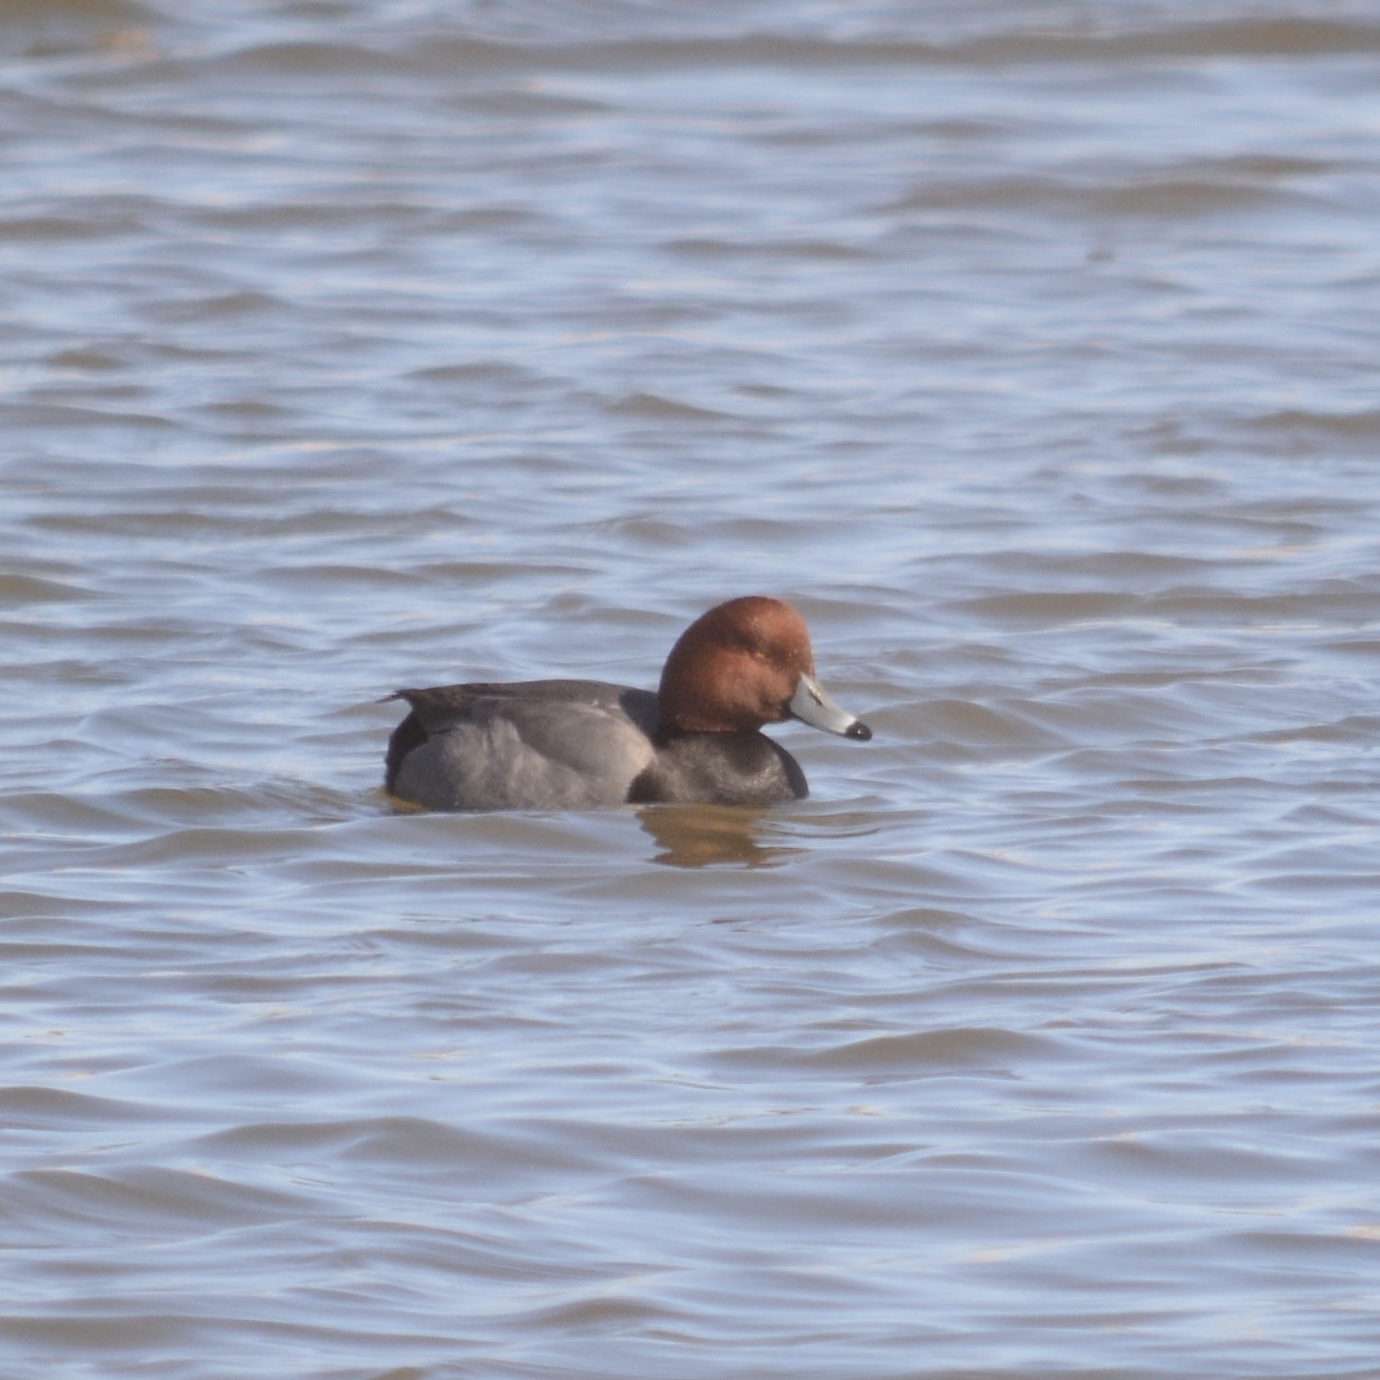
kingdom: Animalia
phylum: Chordata
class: Aves
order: Anseriformes
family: Anatidae
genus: Aythya
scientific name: Aythya americana
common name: Redhead
